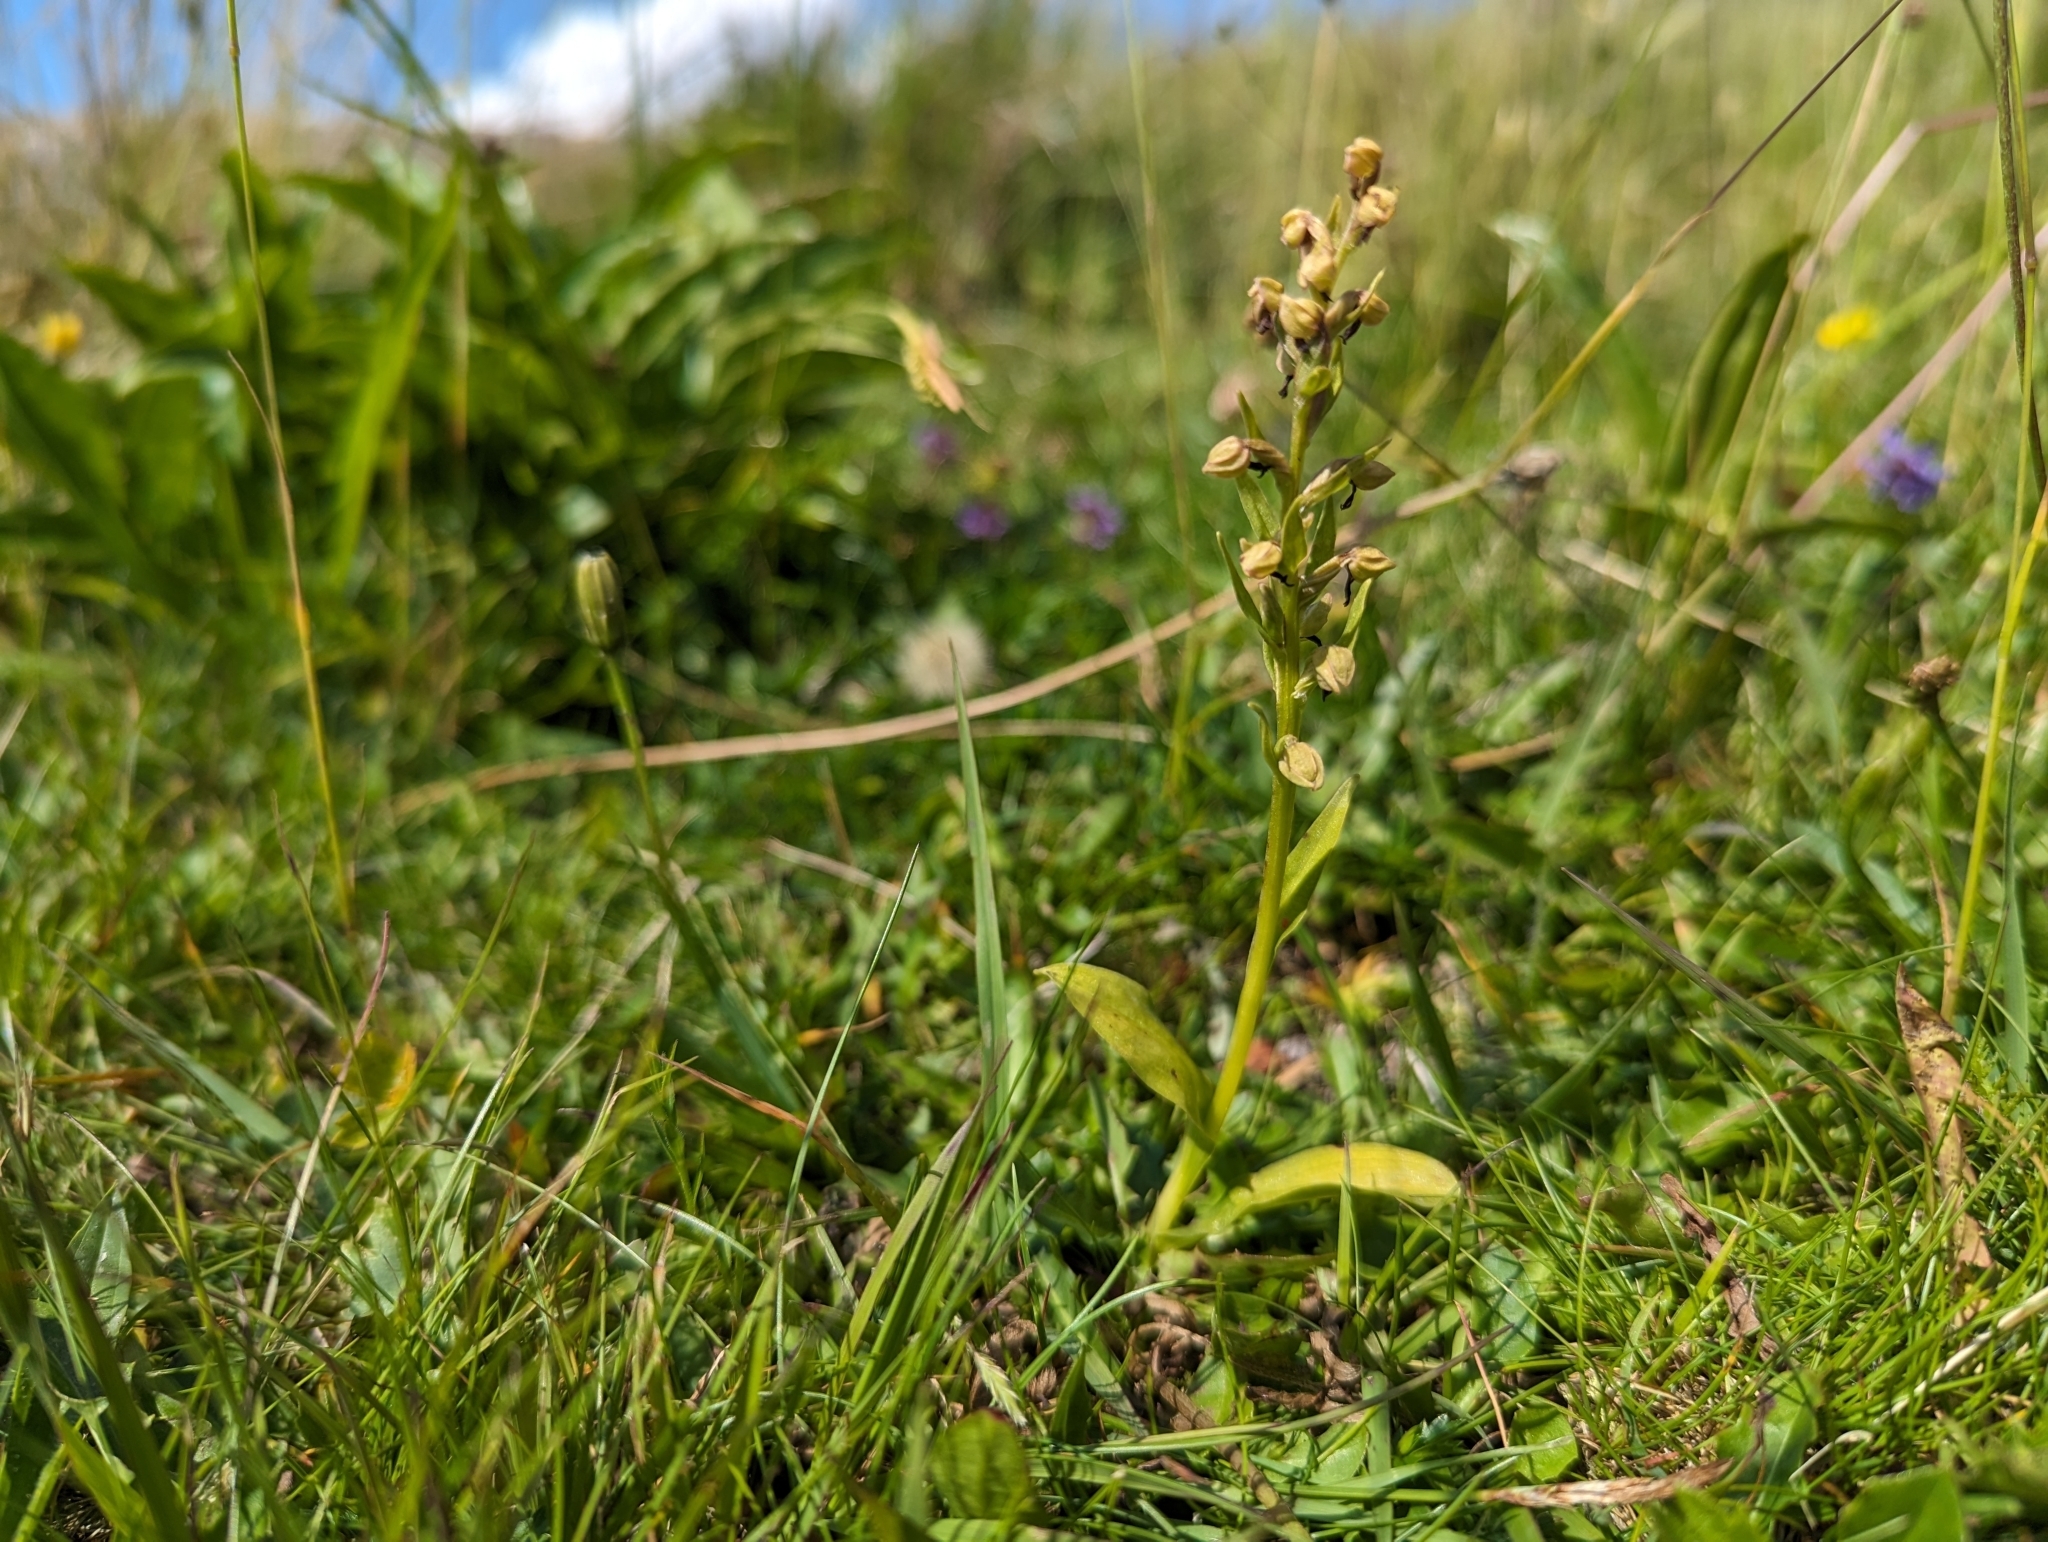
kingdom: Plantae
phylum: Tracheophyta
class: Liliopsida
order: Asparagales
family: Orchidaceae
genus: Dactylorhiza
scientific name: Dactylorhiza viridis
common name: Longbract frog orchid
